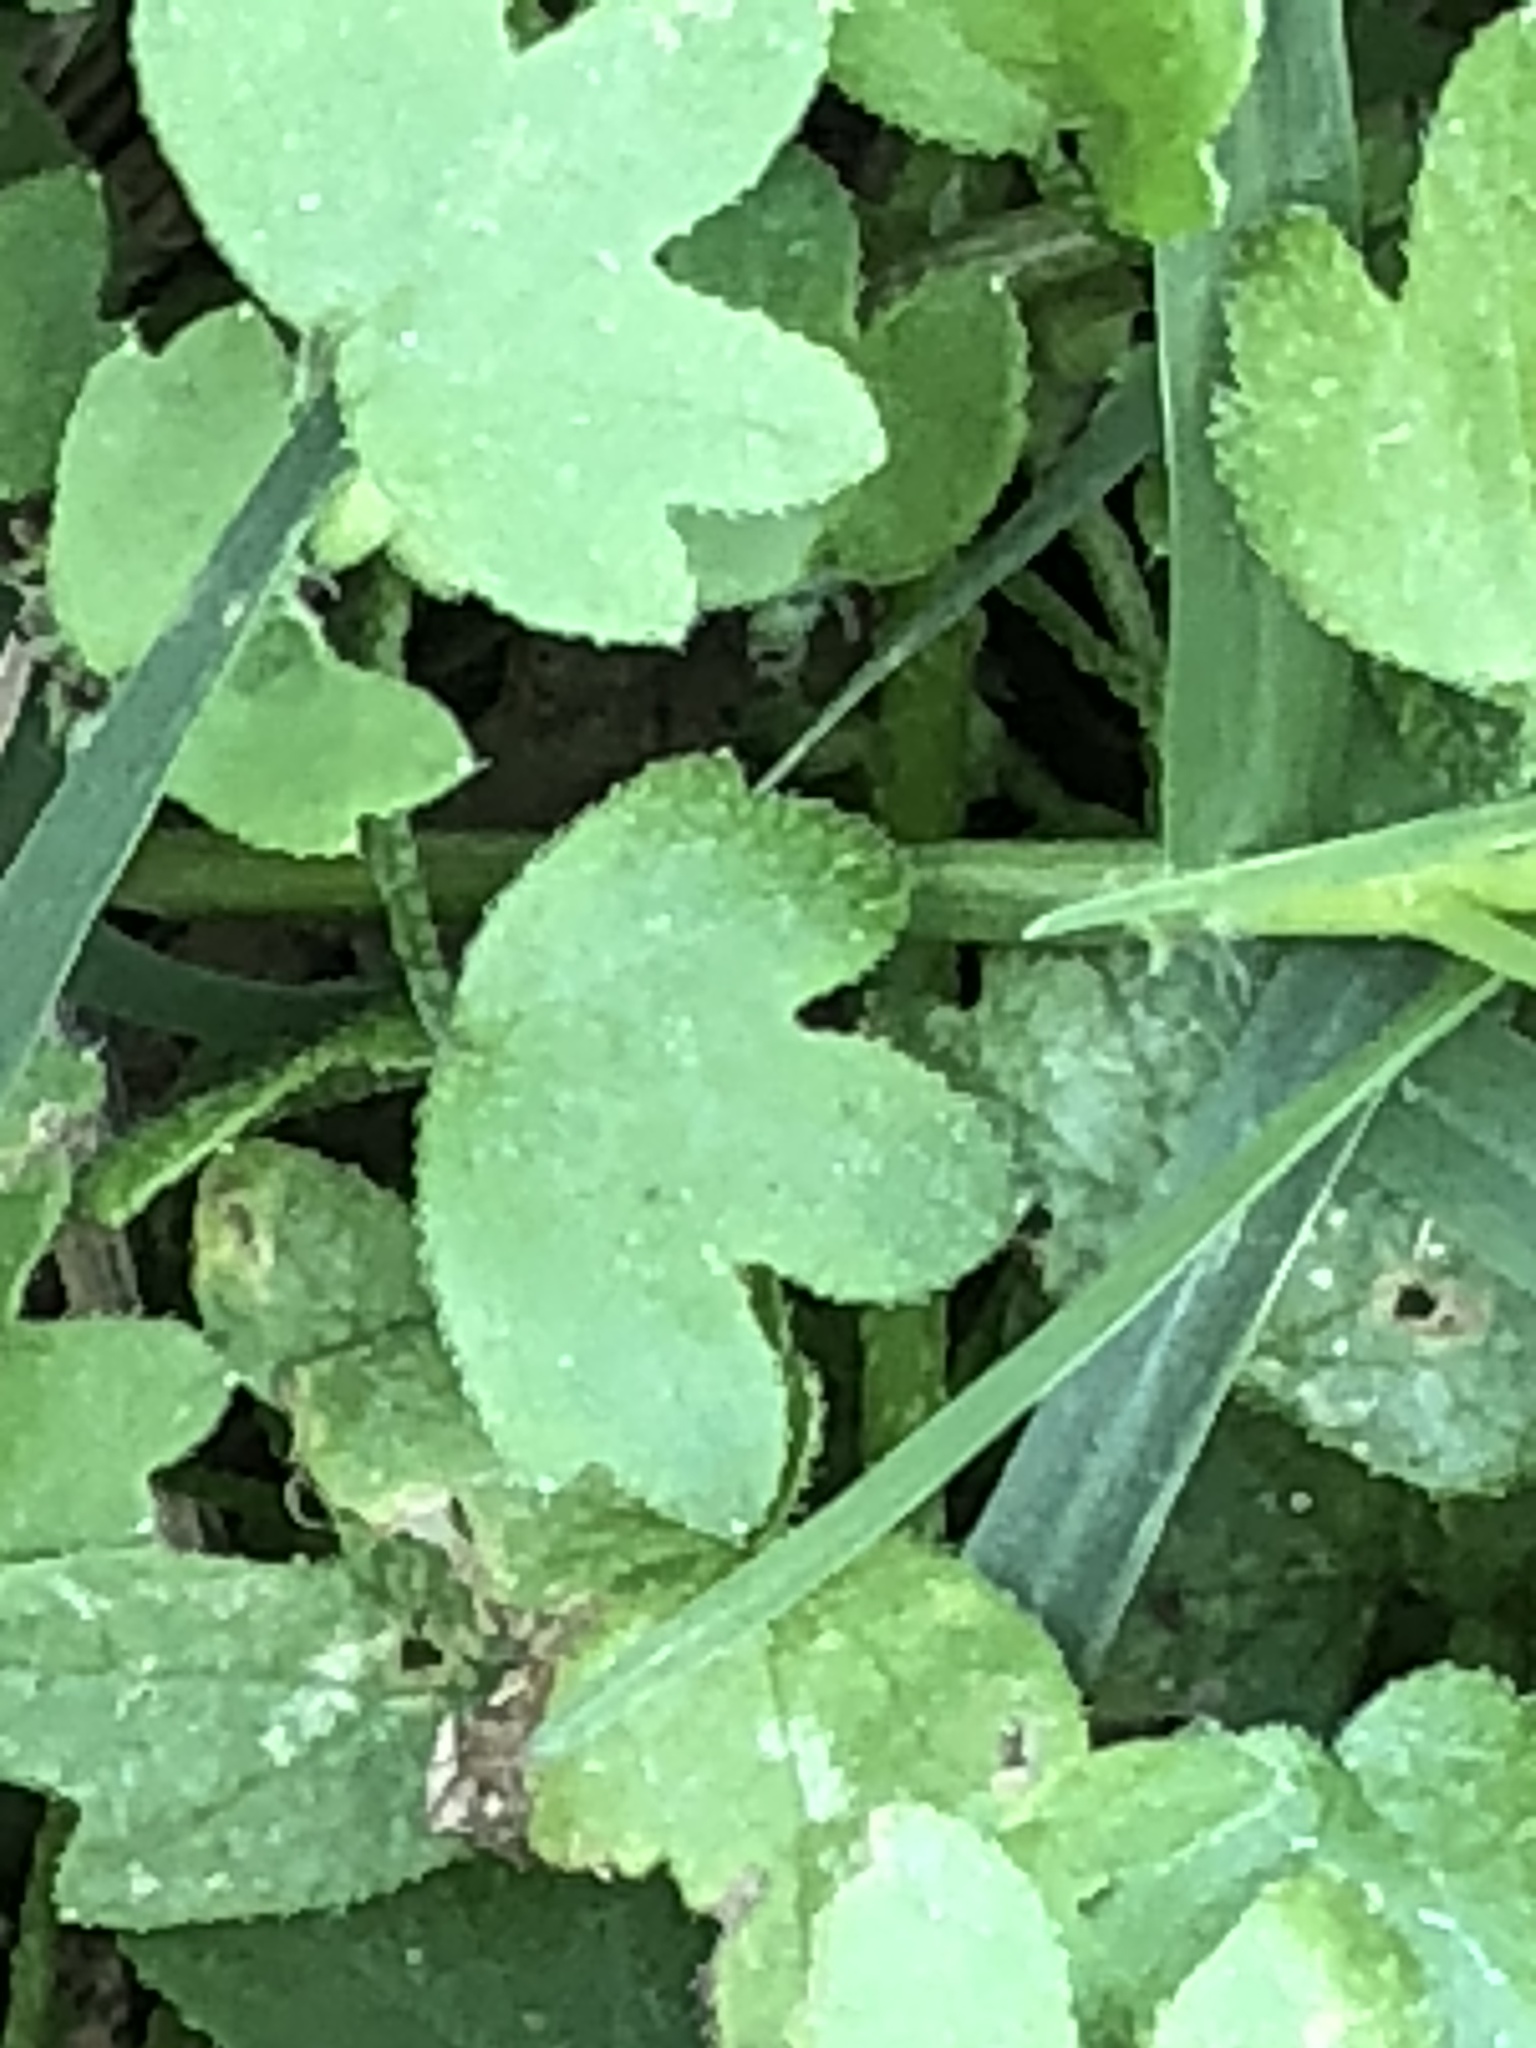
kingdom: Plantae
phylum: Tracheophyta
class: Magnoliopsida
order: Apiales
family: Apiaceae
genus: Bowlesia
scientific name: Bowlesia incana
